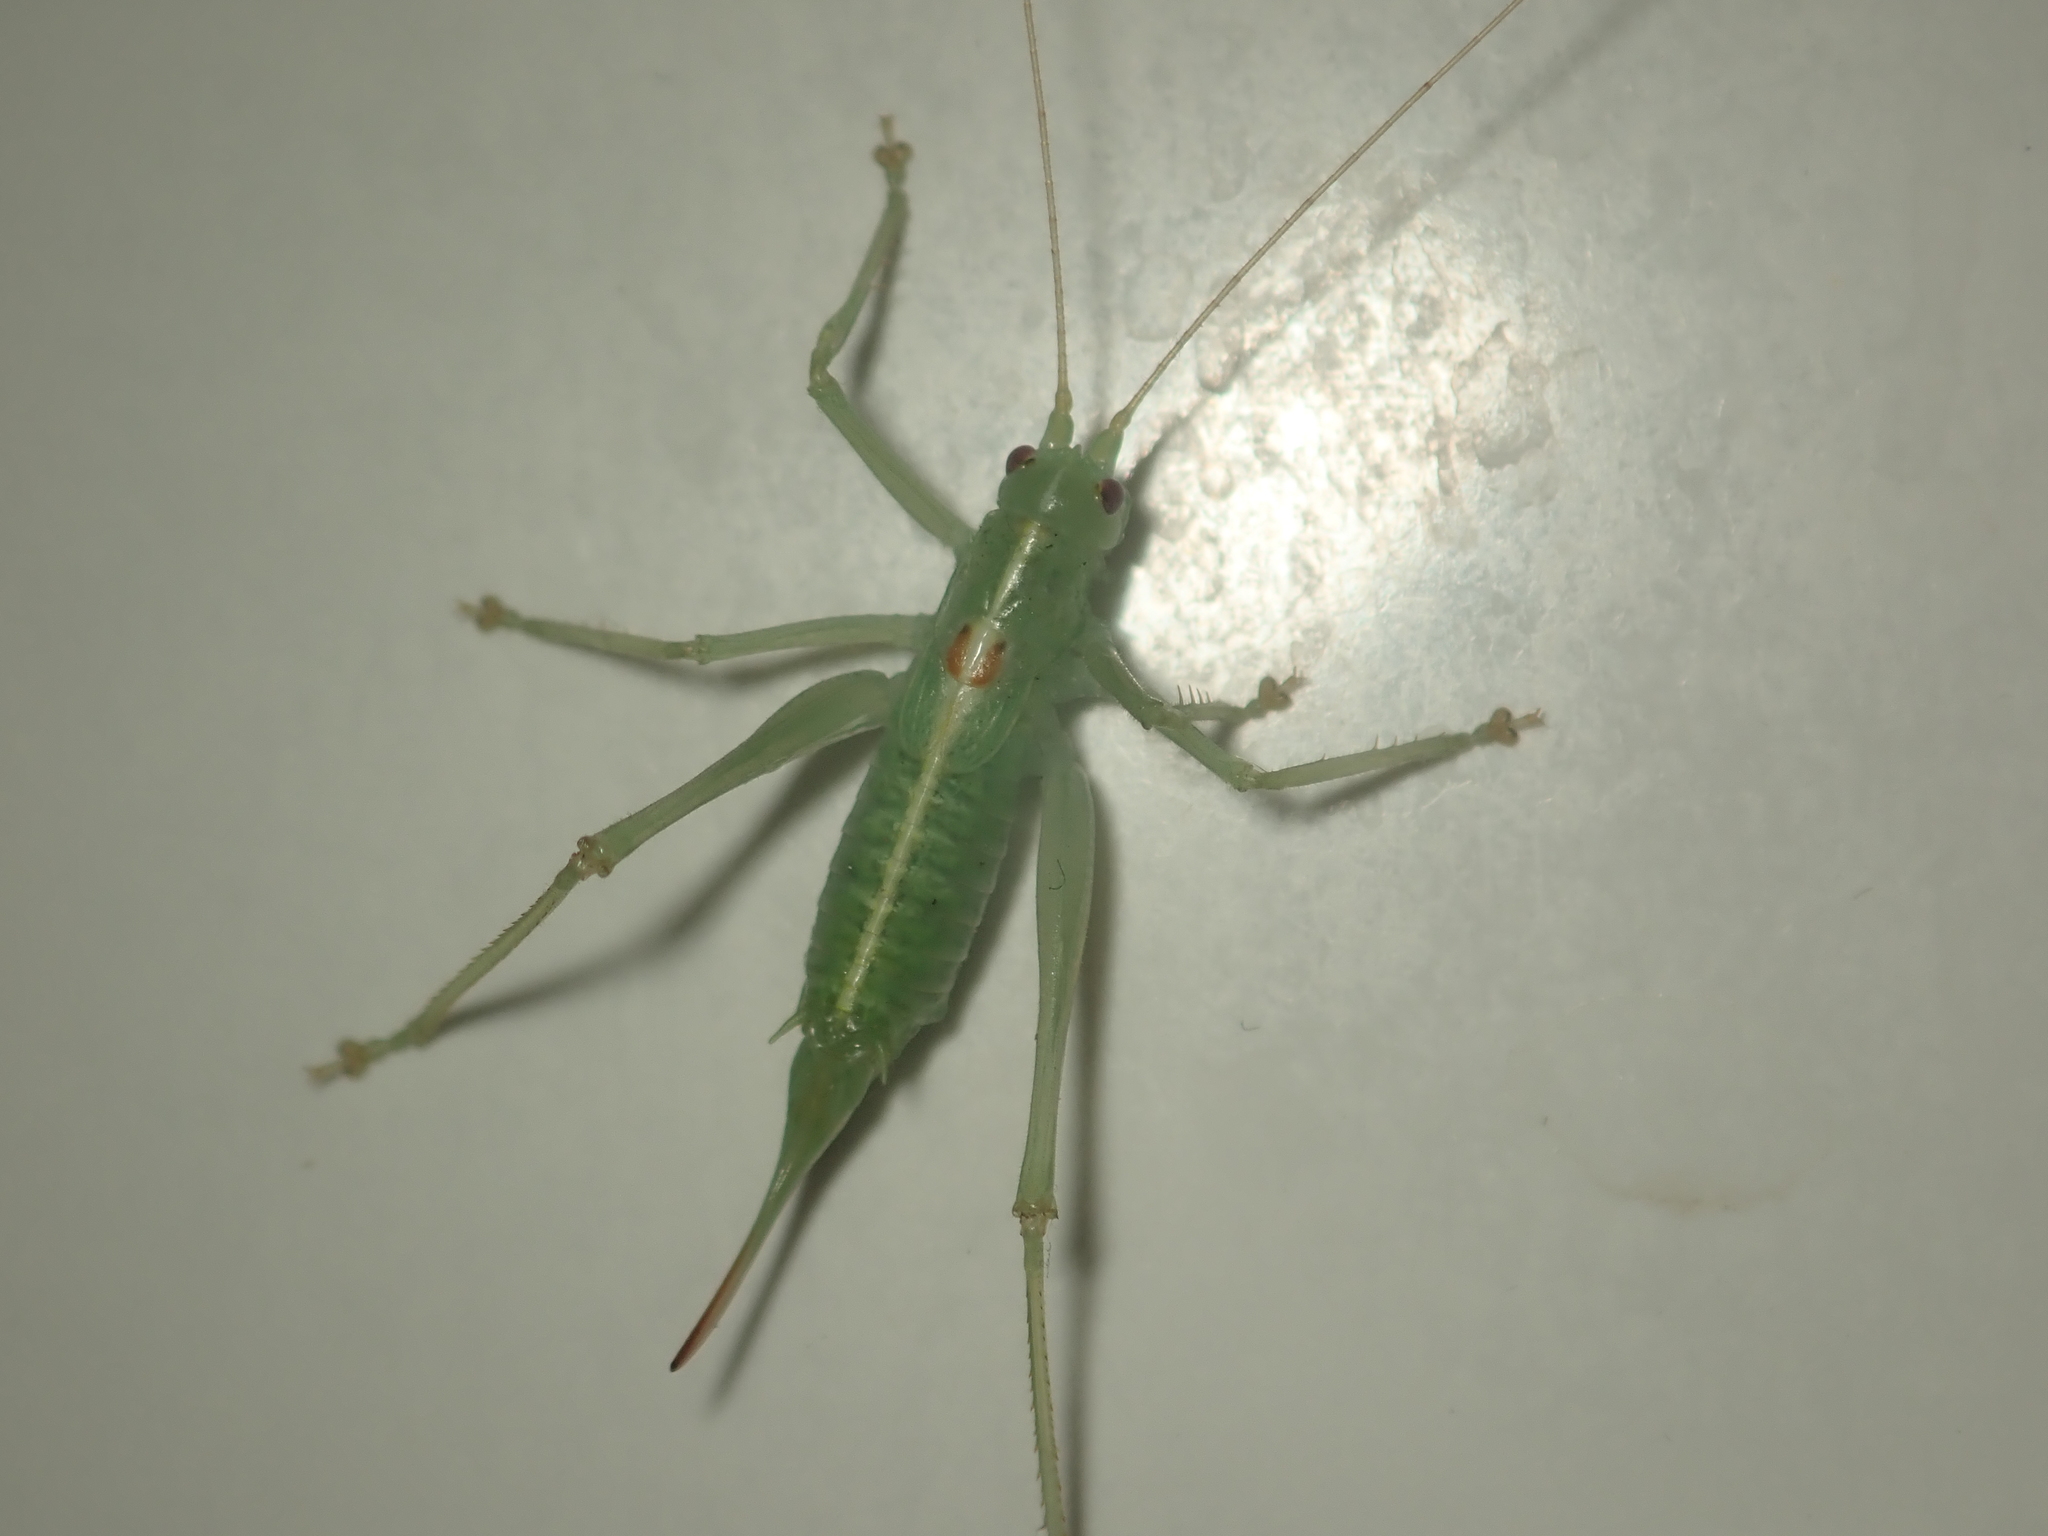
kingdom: Animalia
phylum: Arthropoda
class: Insecta
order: Orthoptera
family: Tettigoniidae
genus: Meconema
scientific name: Meconema meridionale
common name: Southern oak bush-cricket
